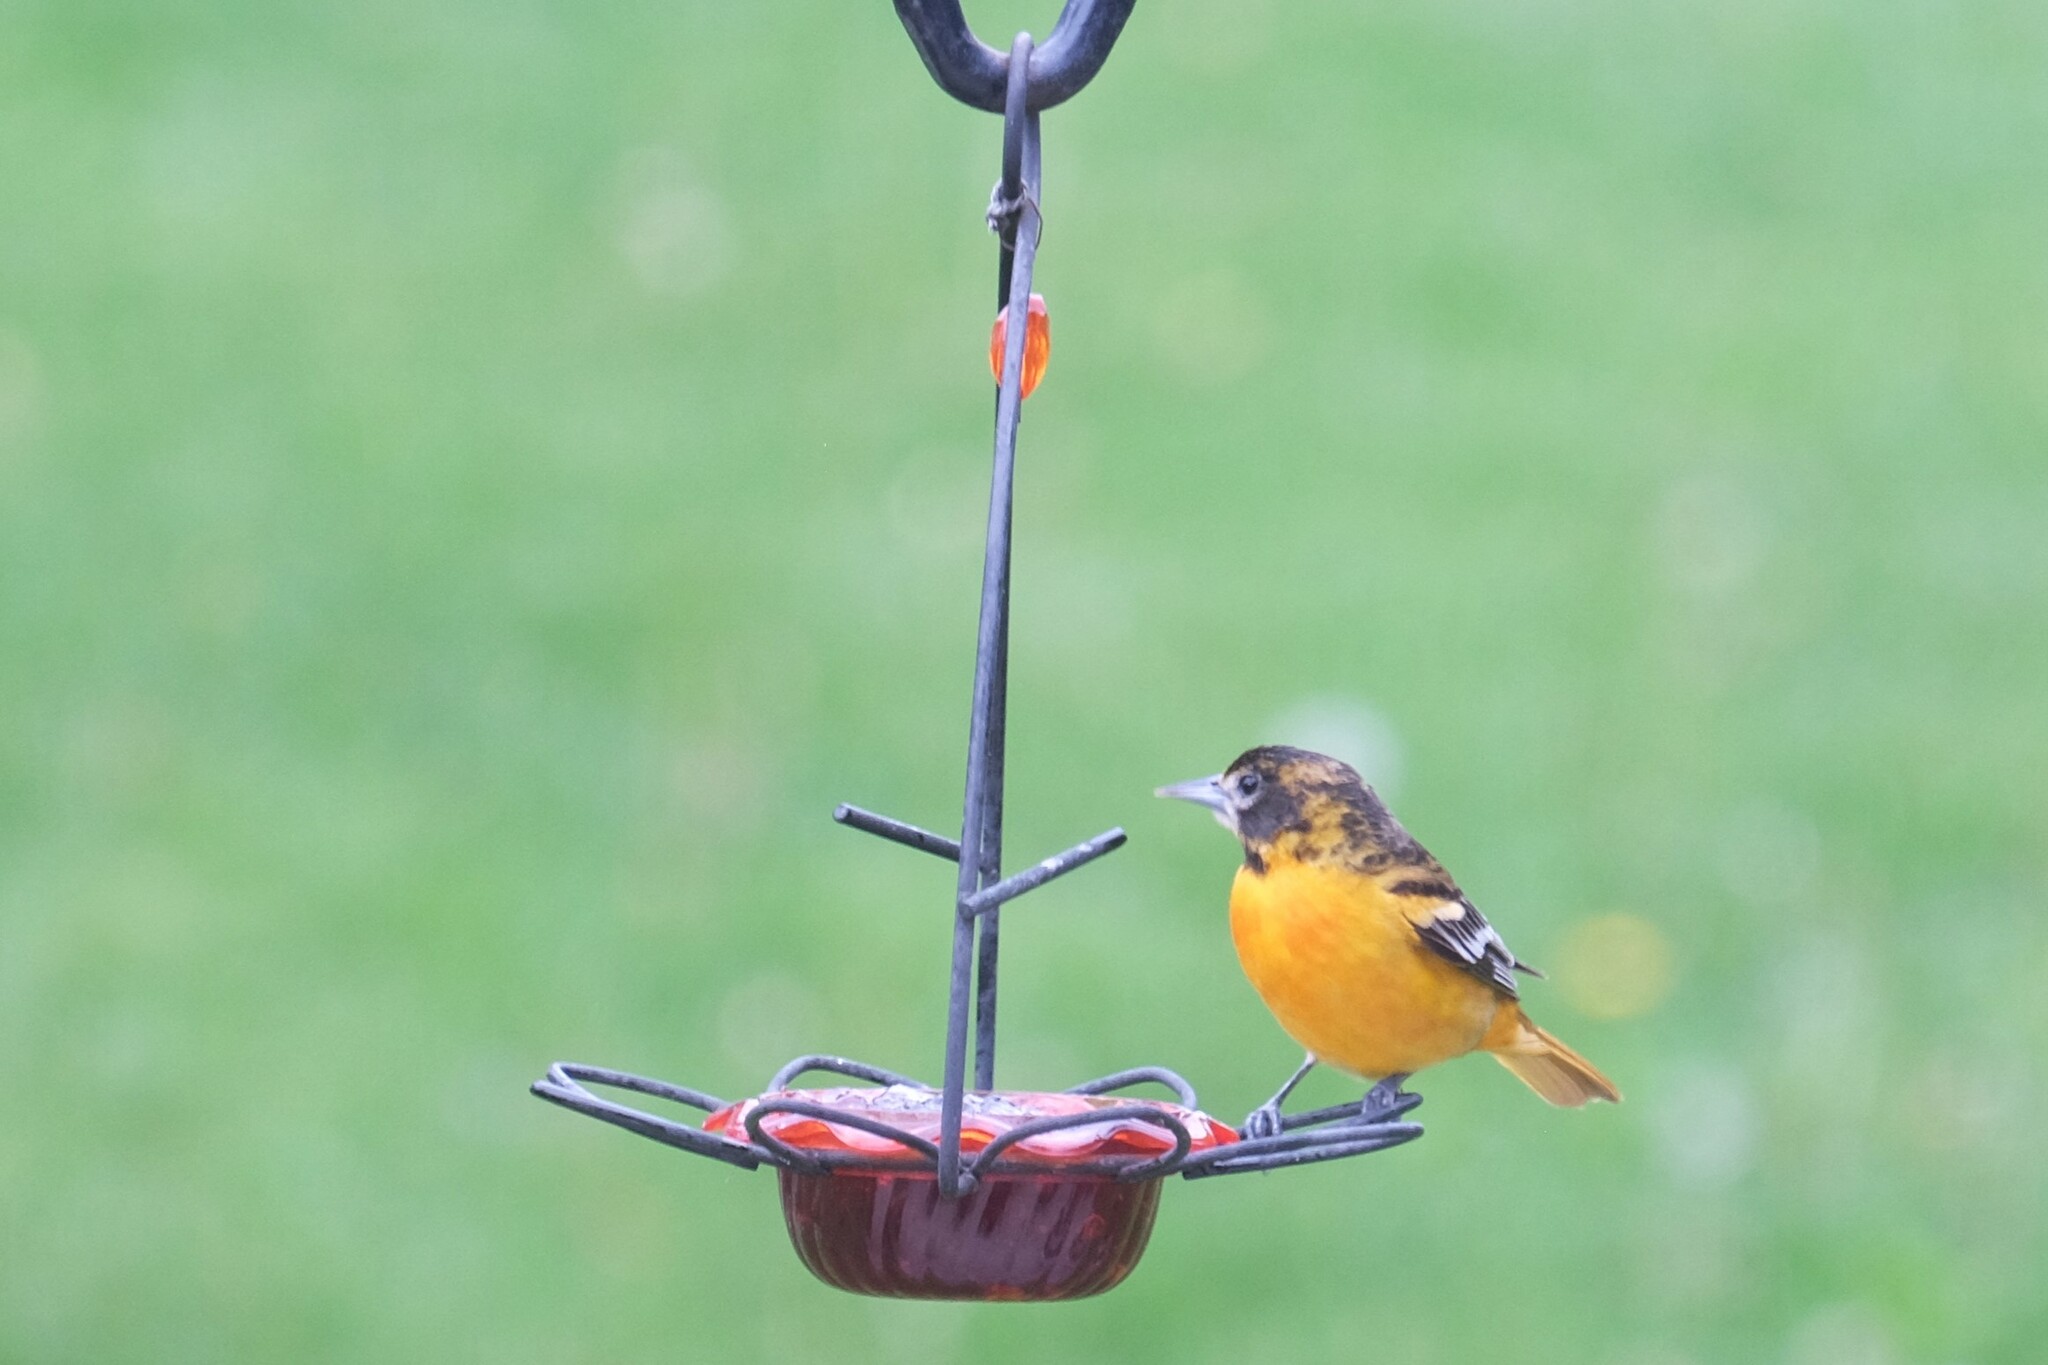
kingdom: Animalia
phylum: Chordata
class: Aves
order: Passeriformes
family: Icteridae
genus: Icterus
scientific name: Icterus galbula
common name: Baltimore oriole
